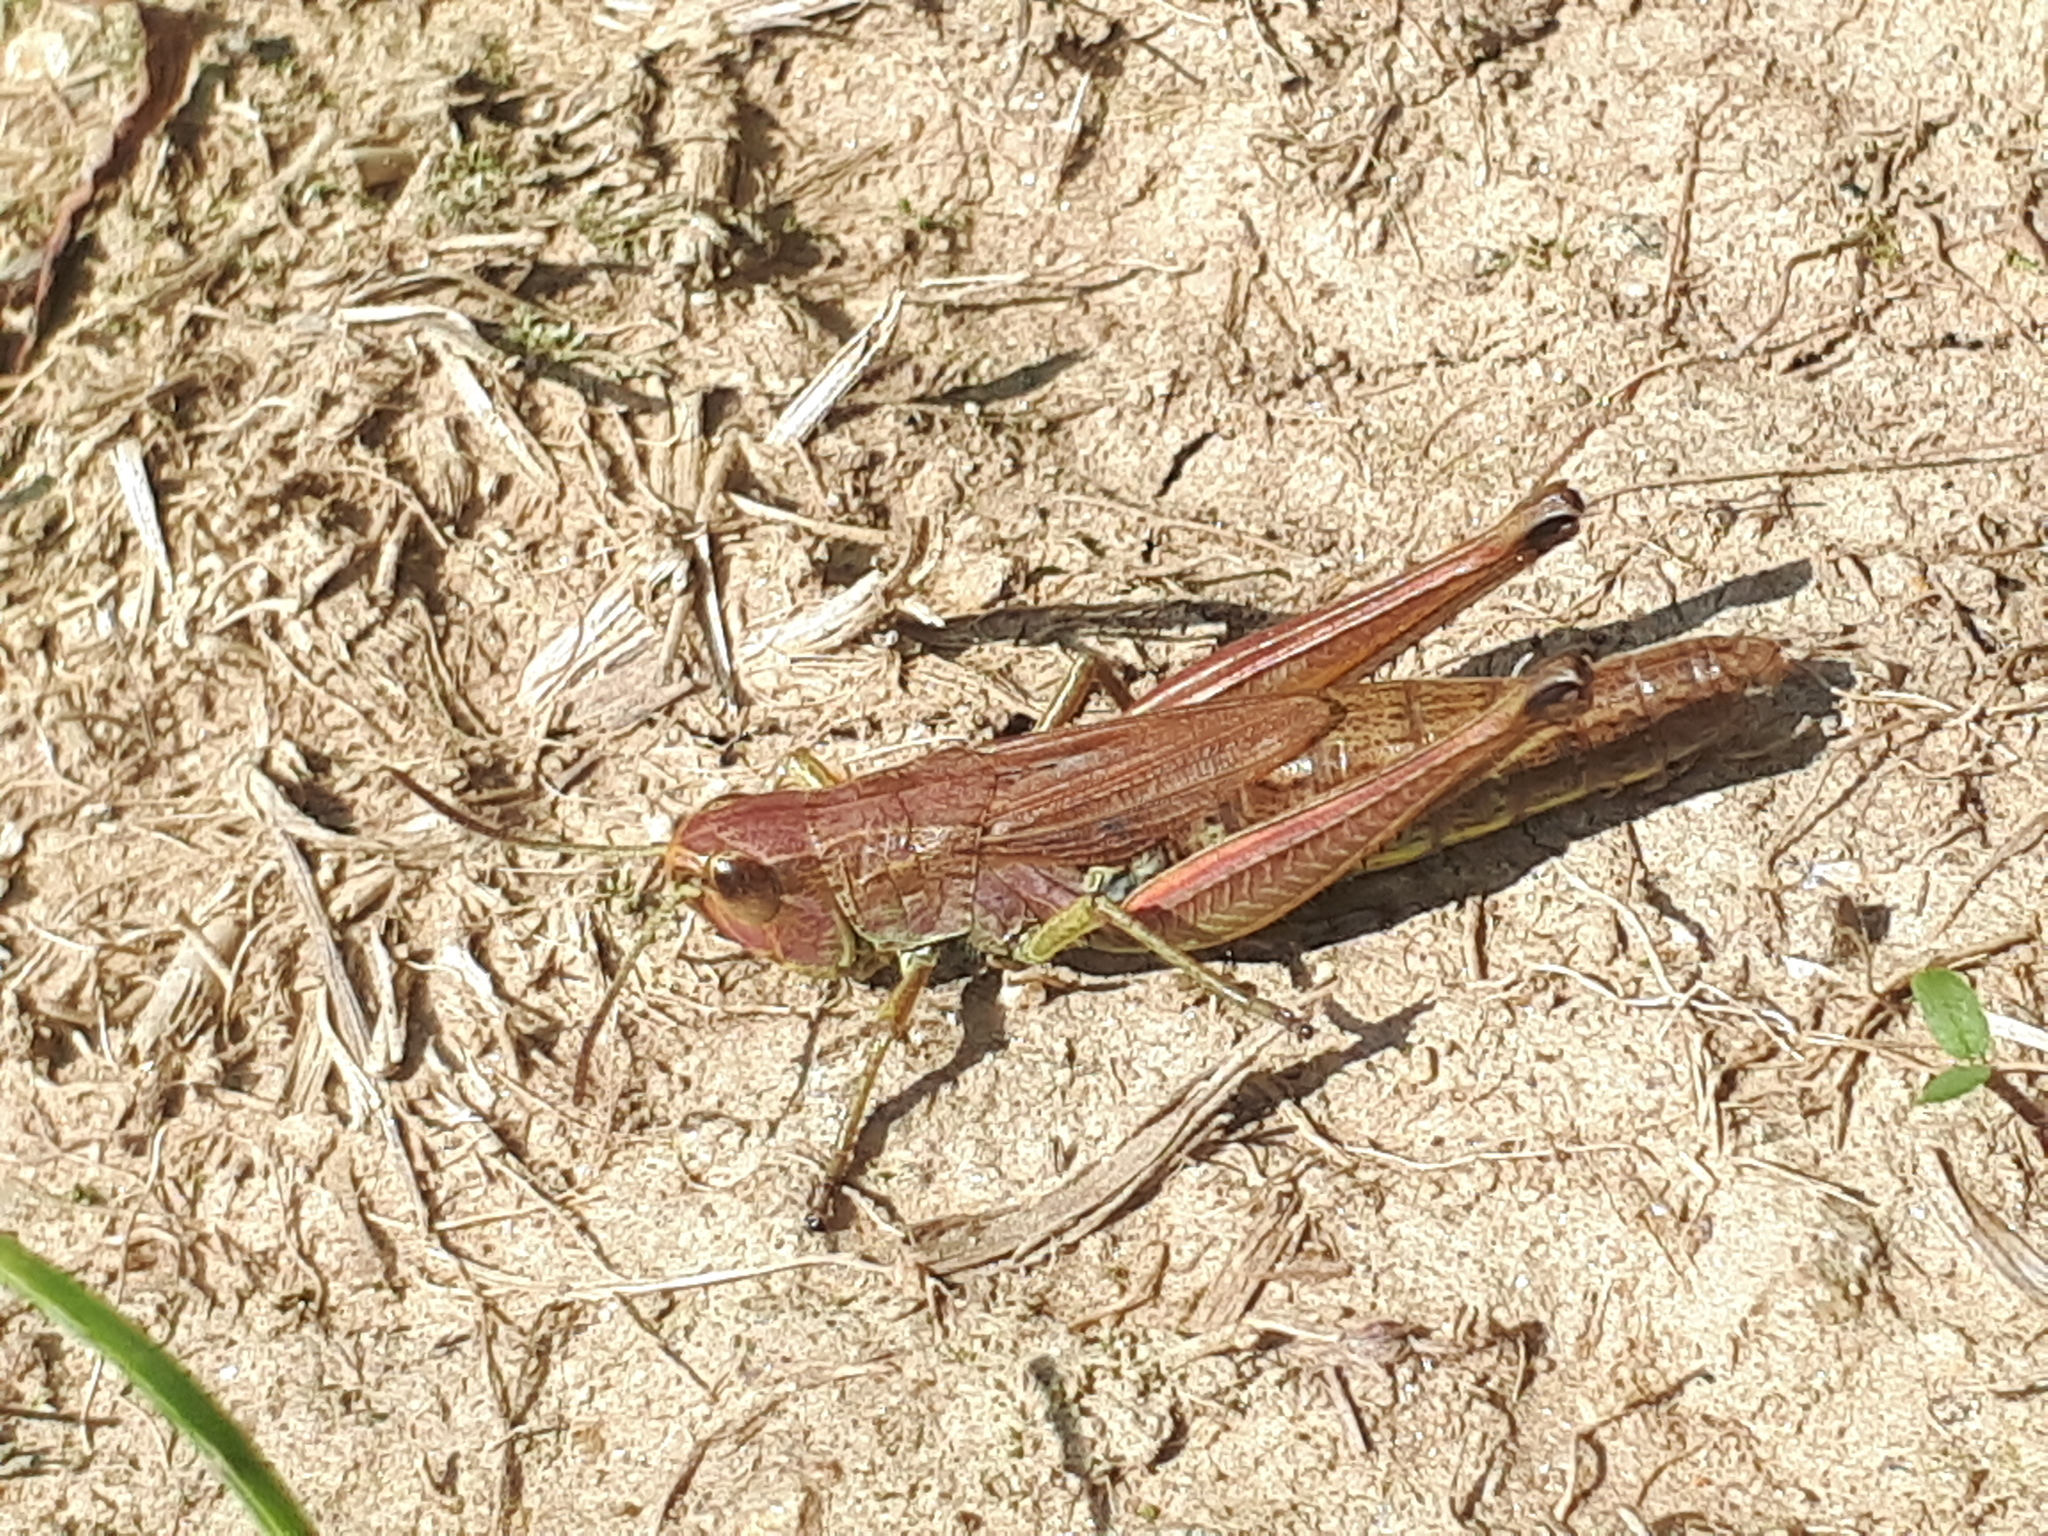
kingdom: Animalia
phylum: Arthropoda
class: Insecta
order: Orthoptera
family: Acrididae
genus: Pseudochorthippus
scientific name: Pseudochorthippus parallelus
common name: Meadow grasshopper
